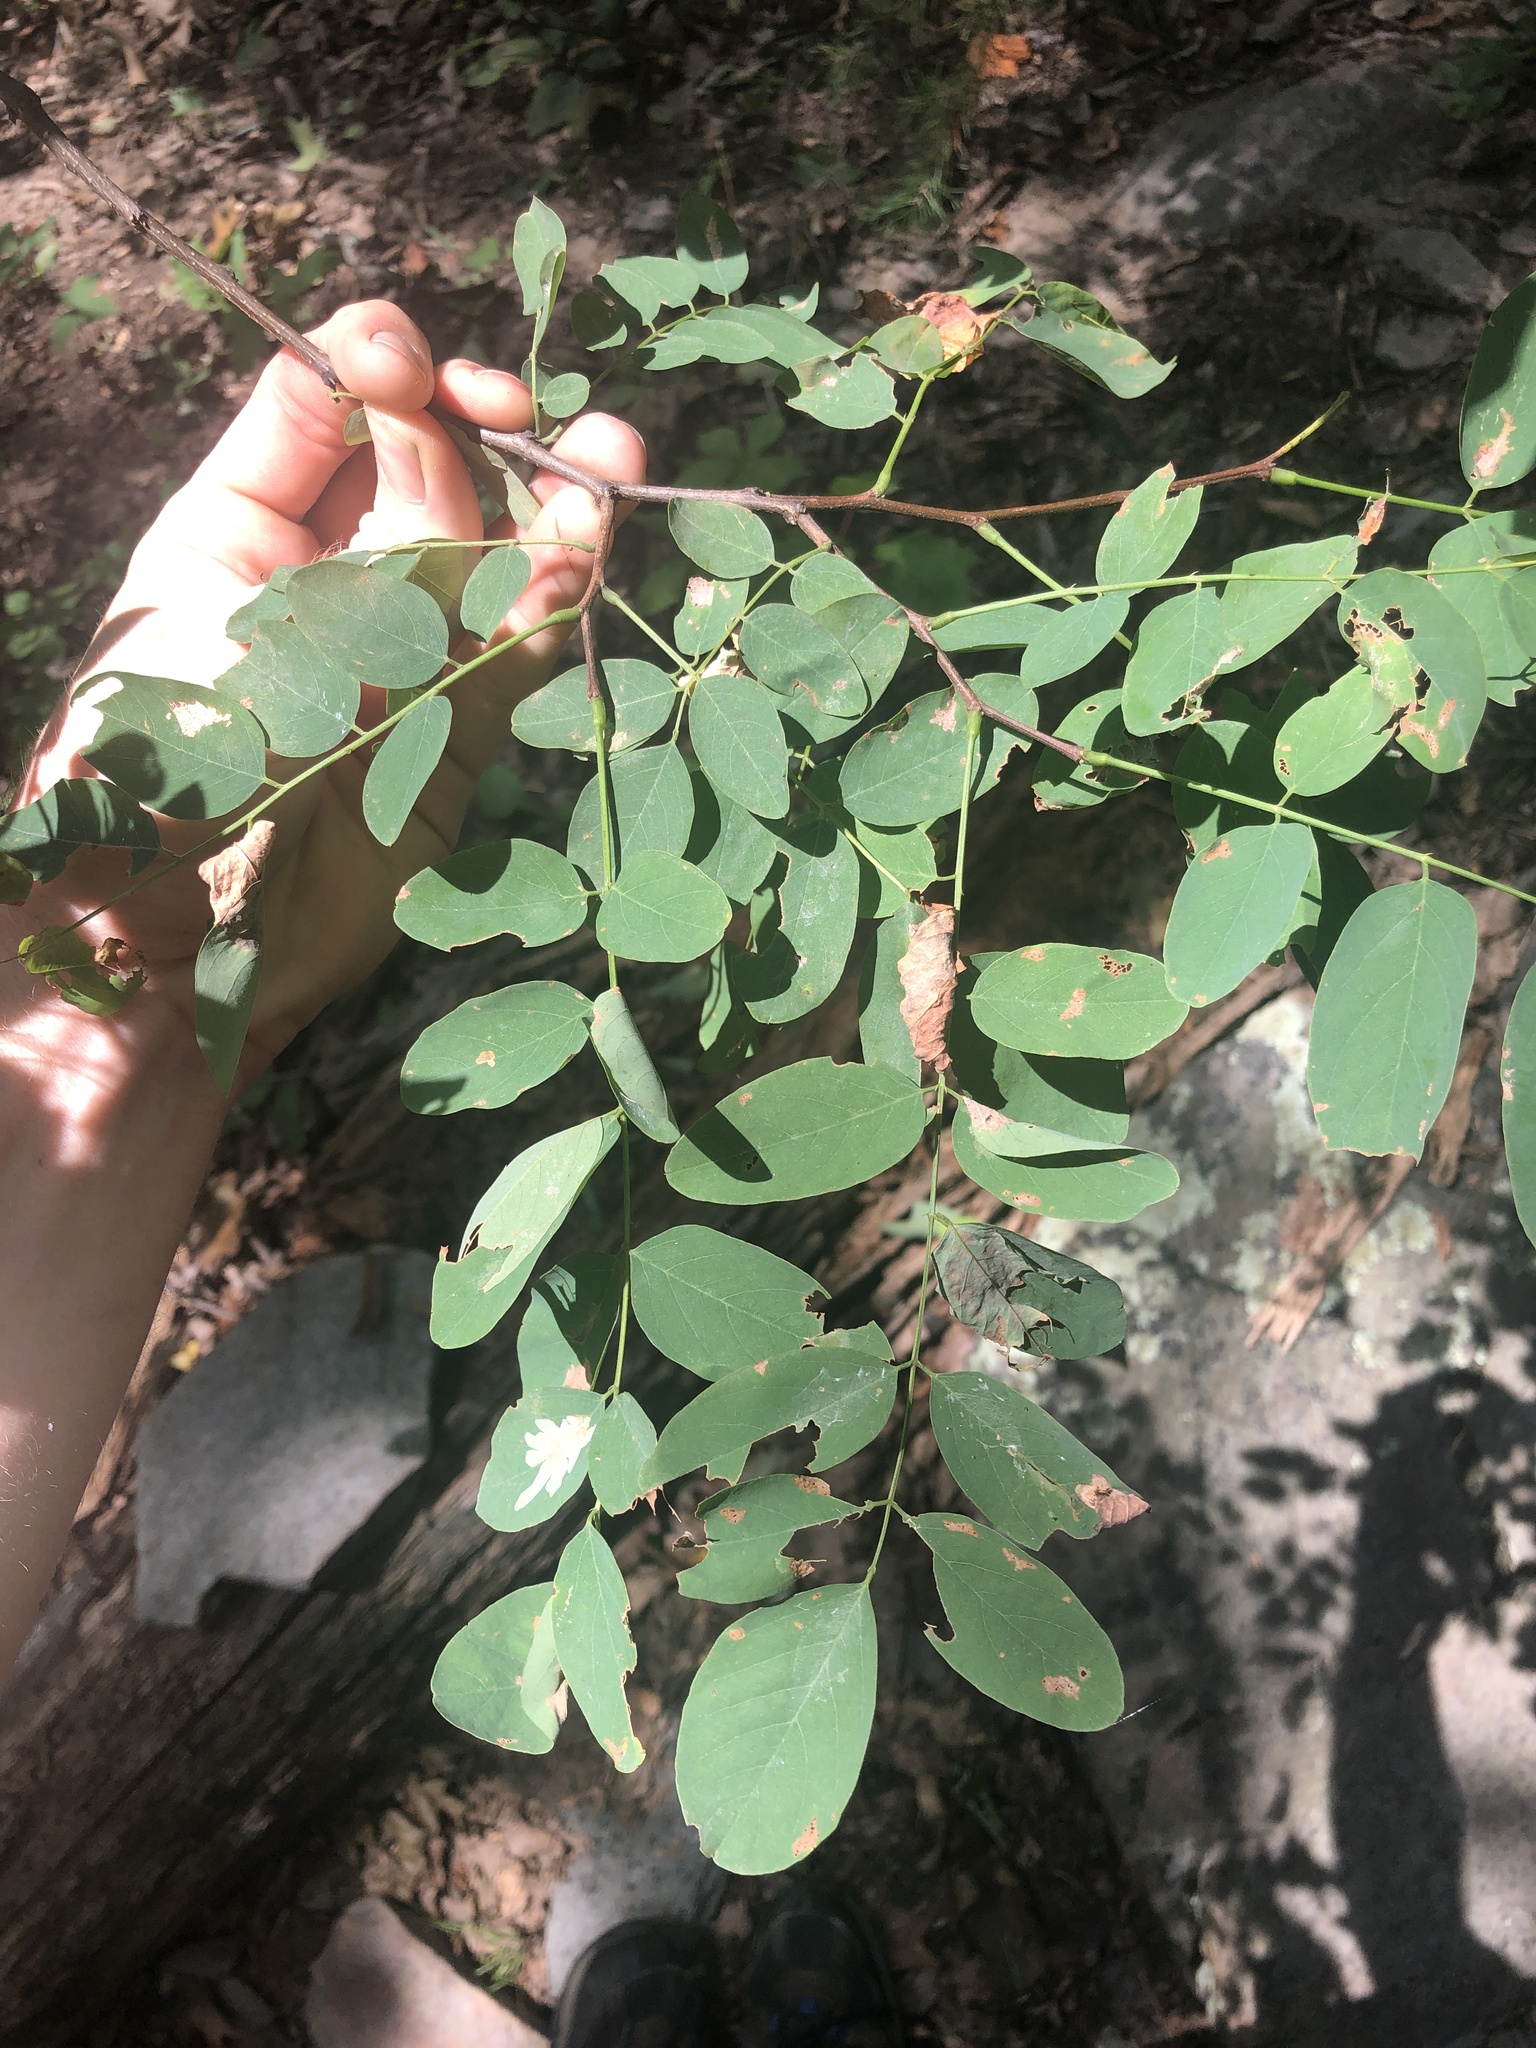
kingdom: Plantae
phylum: Tracheophyta
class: Magnoliopsida
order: Fabales
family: Fabaceae
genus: Robinia
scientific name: Robinia pseudoacacia
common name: Black locust
